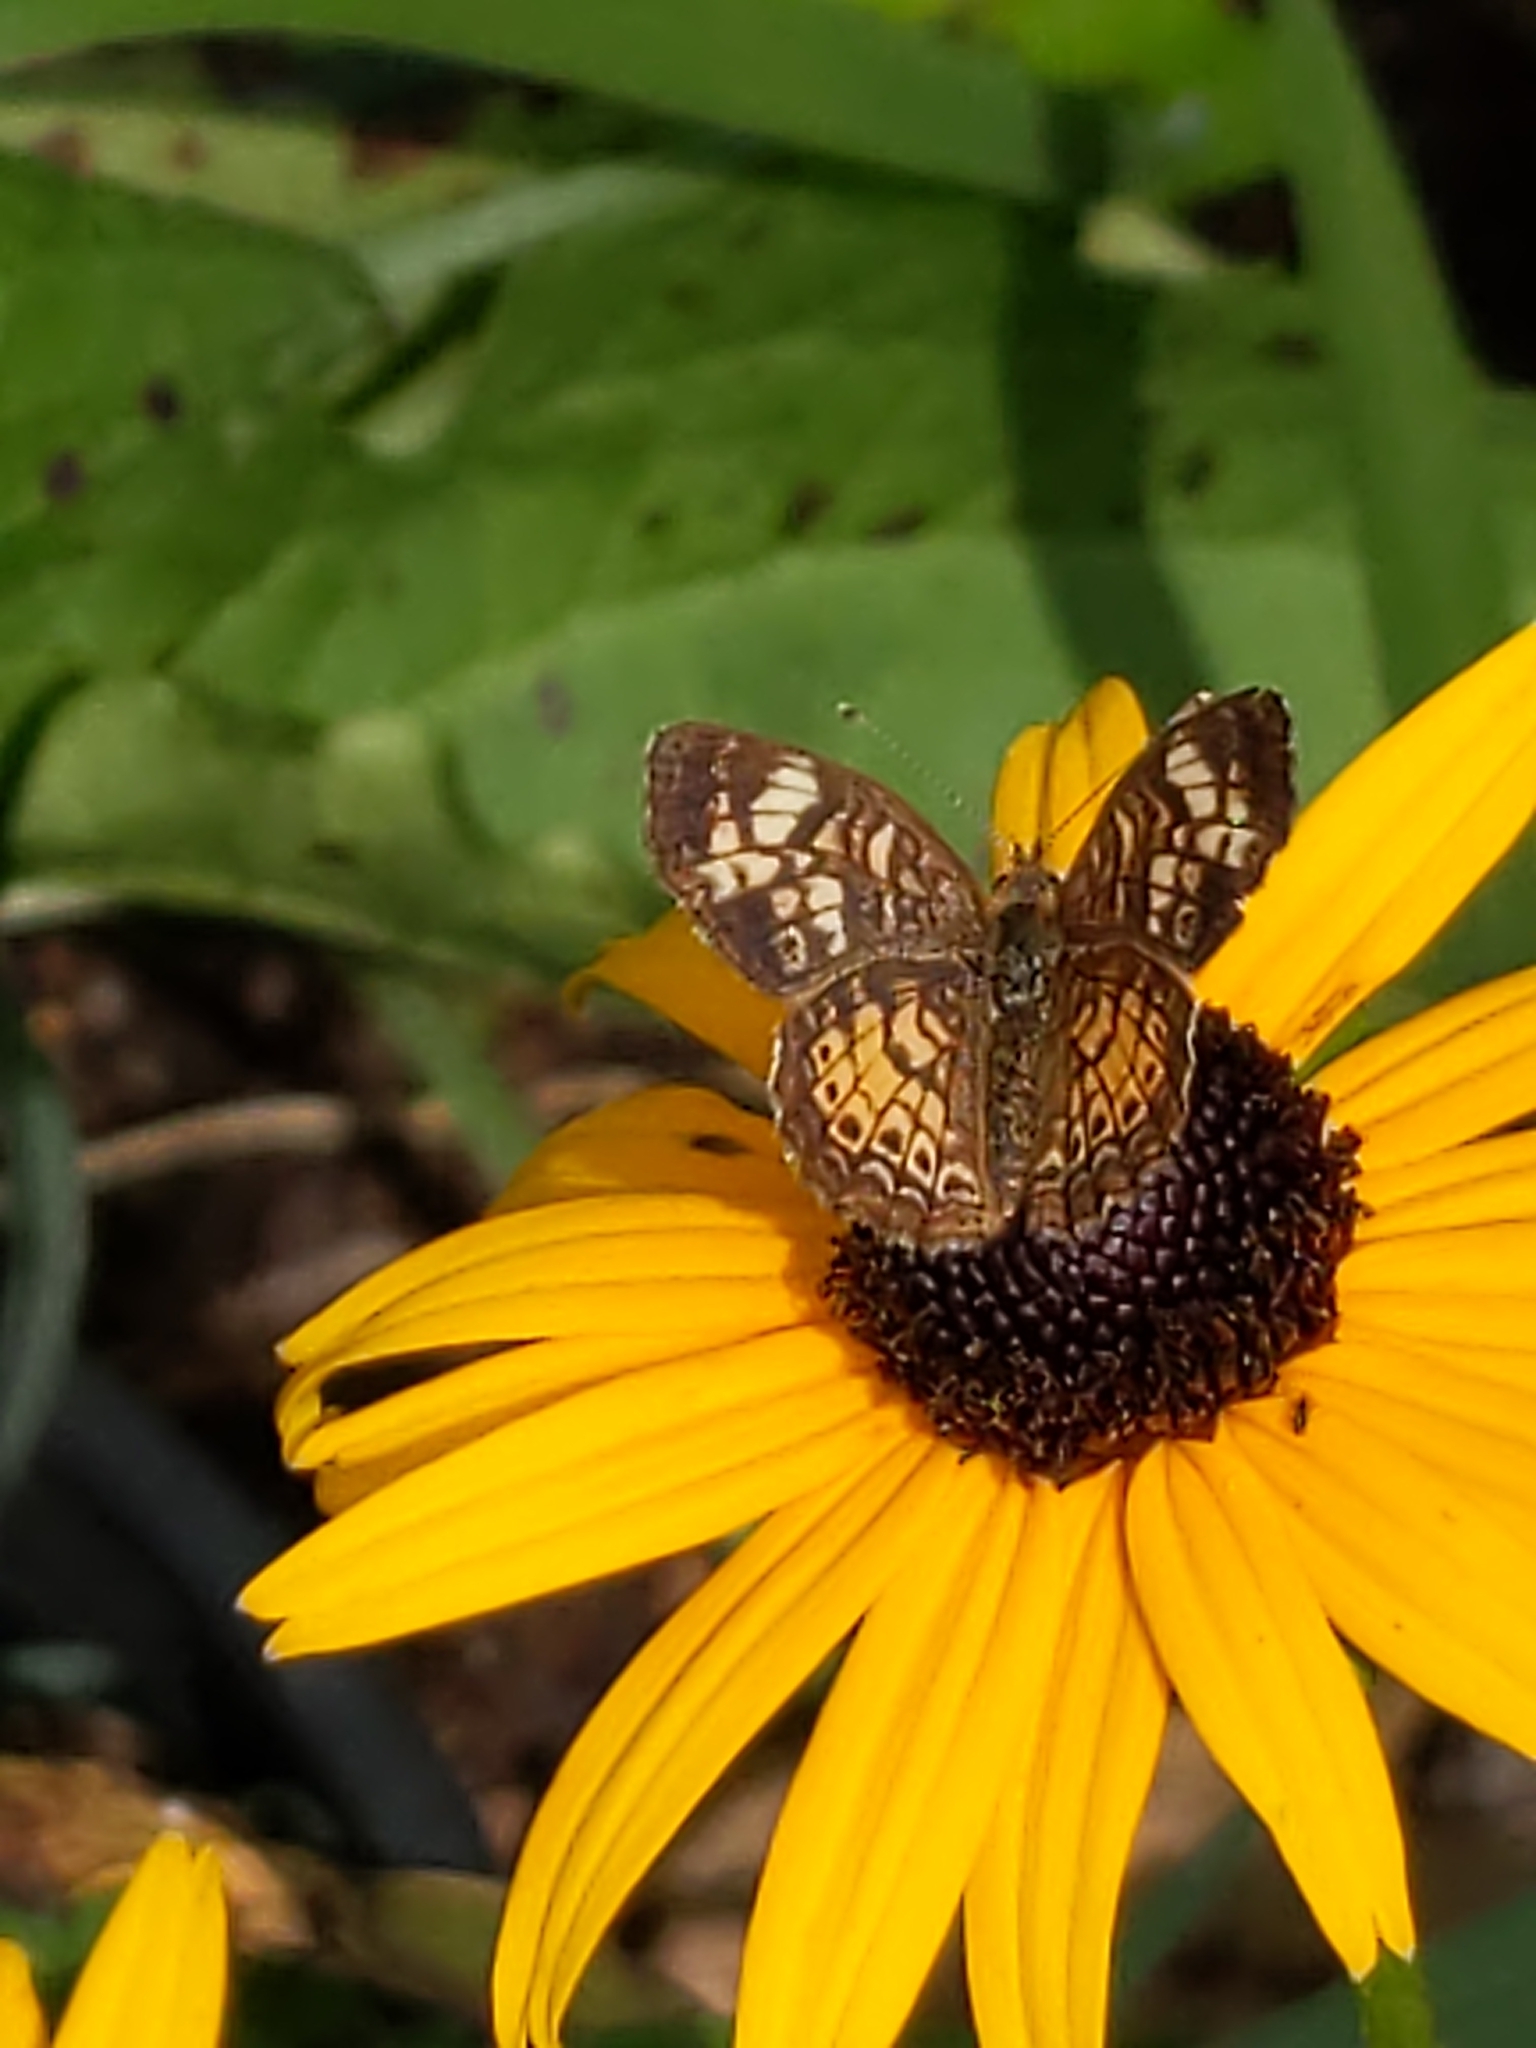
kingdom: Animalia
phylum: Arthropoda
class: Insecta
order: Lepidoptera
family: Nymphalidae
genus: Phyciodes
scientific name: Phyciodes tharos
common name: Pearl crescent
